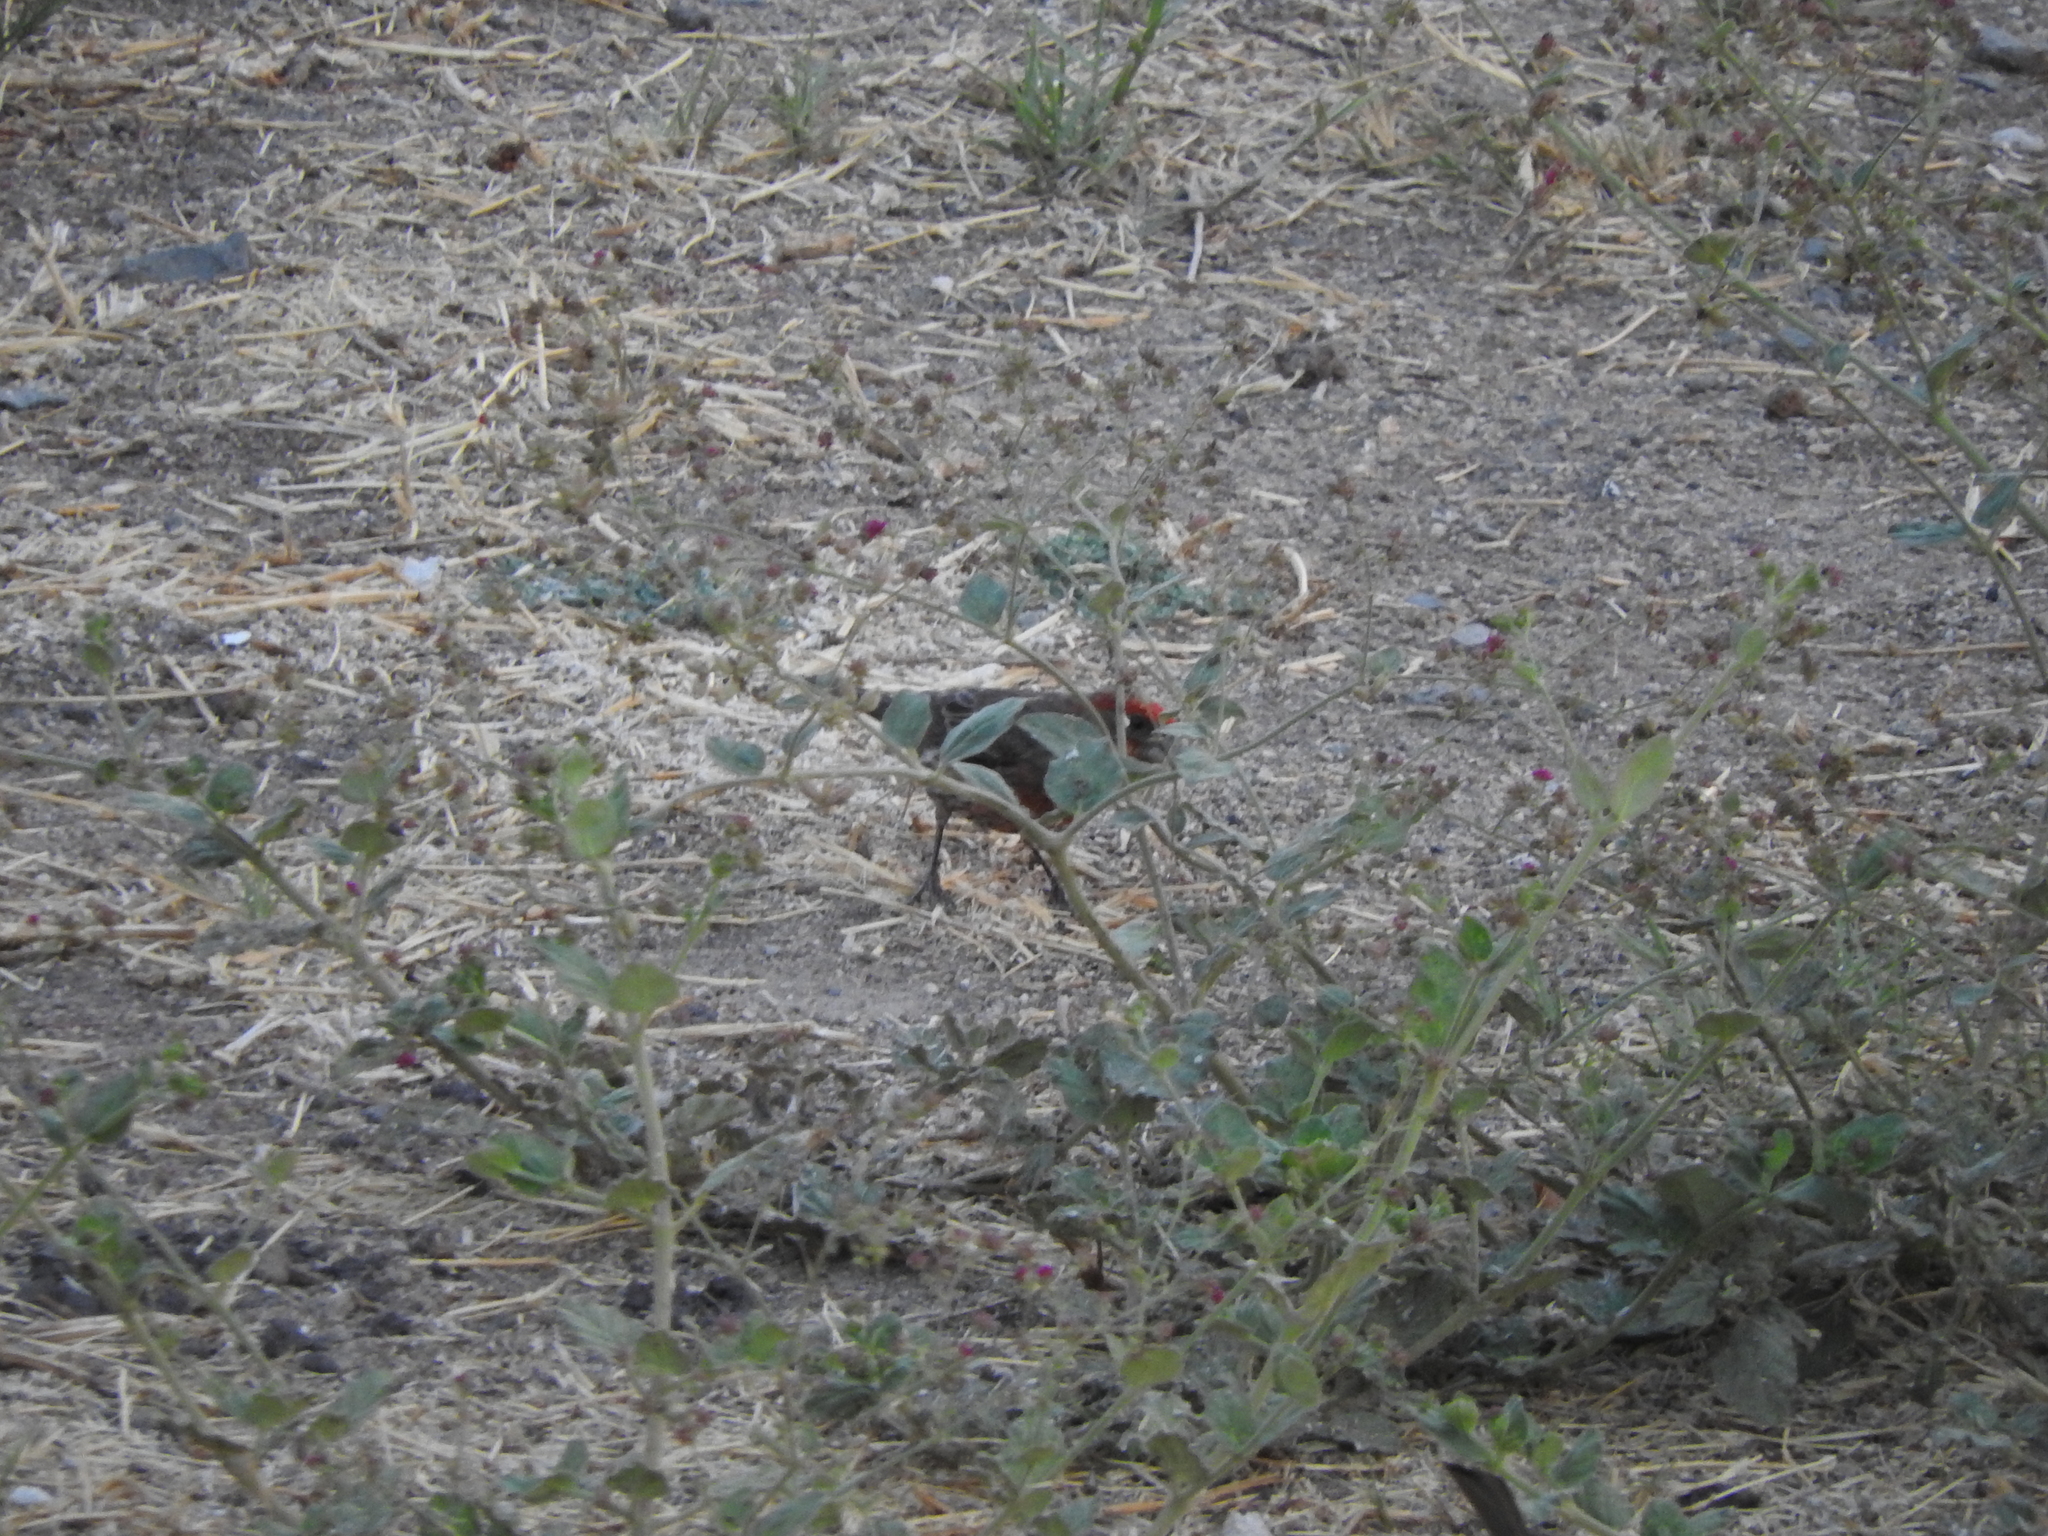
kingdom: Animalia
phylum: Chordata
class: Aves
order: Passeriformes
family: Fringillidae
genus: Haemorhous
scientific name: Haemorhous mexicanus
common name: House finch
